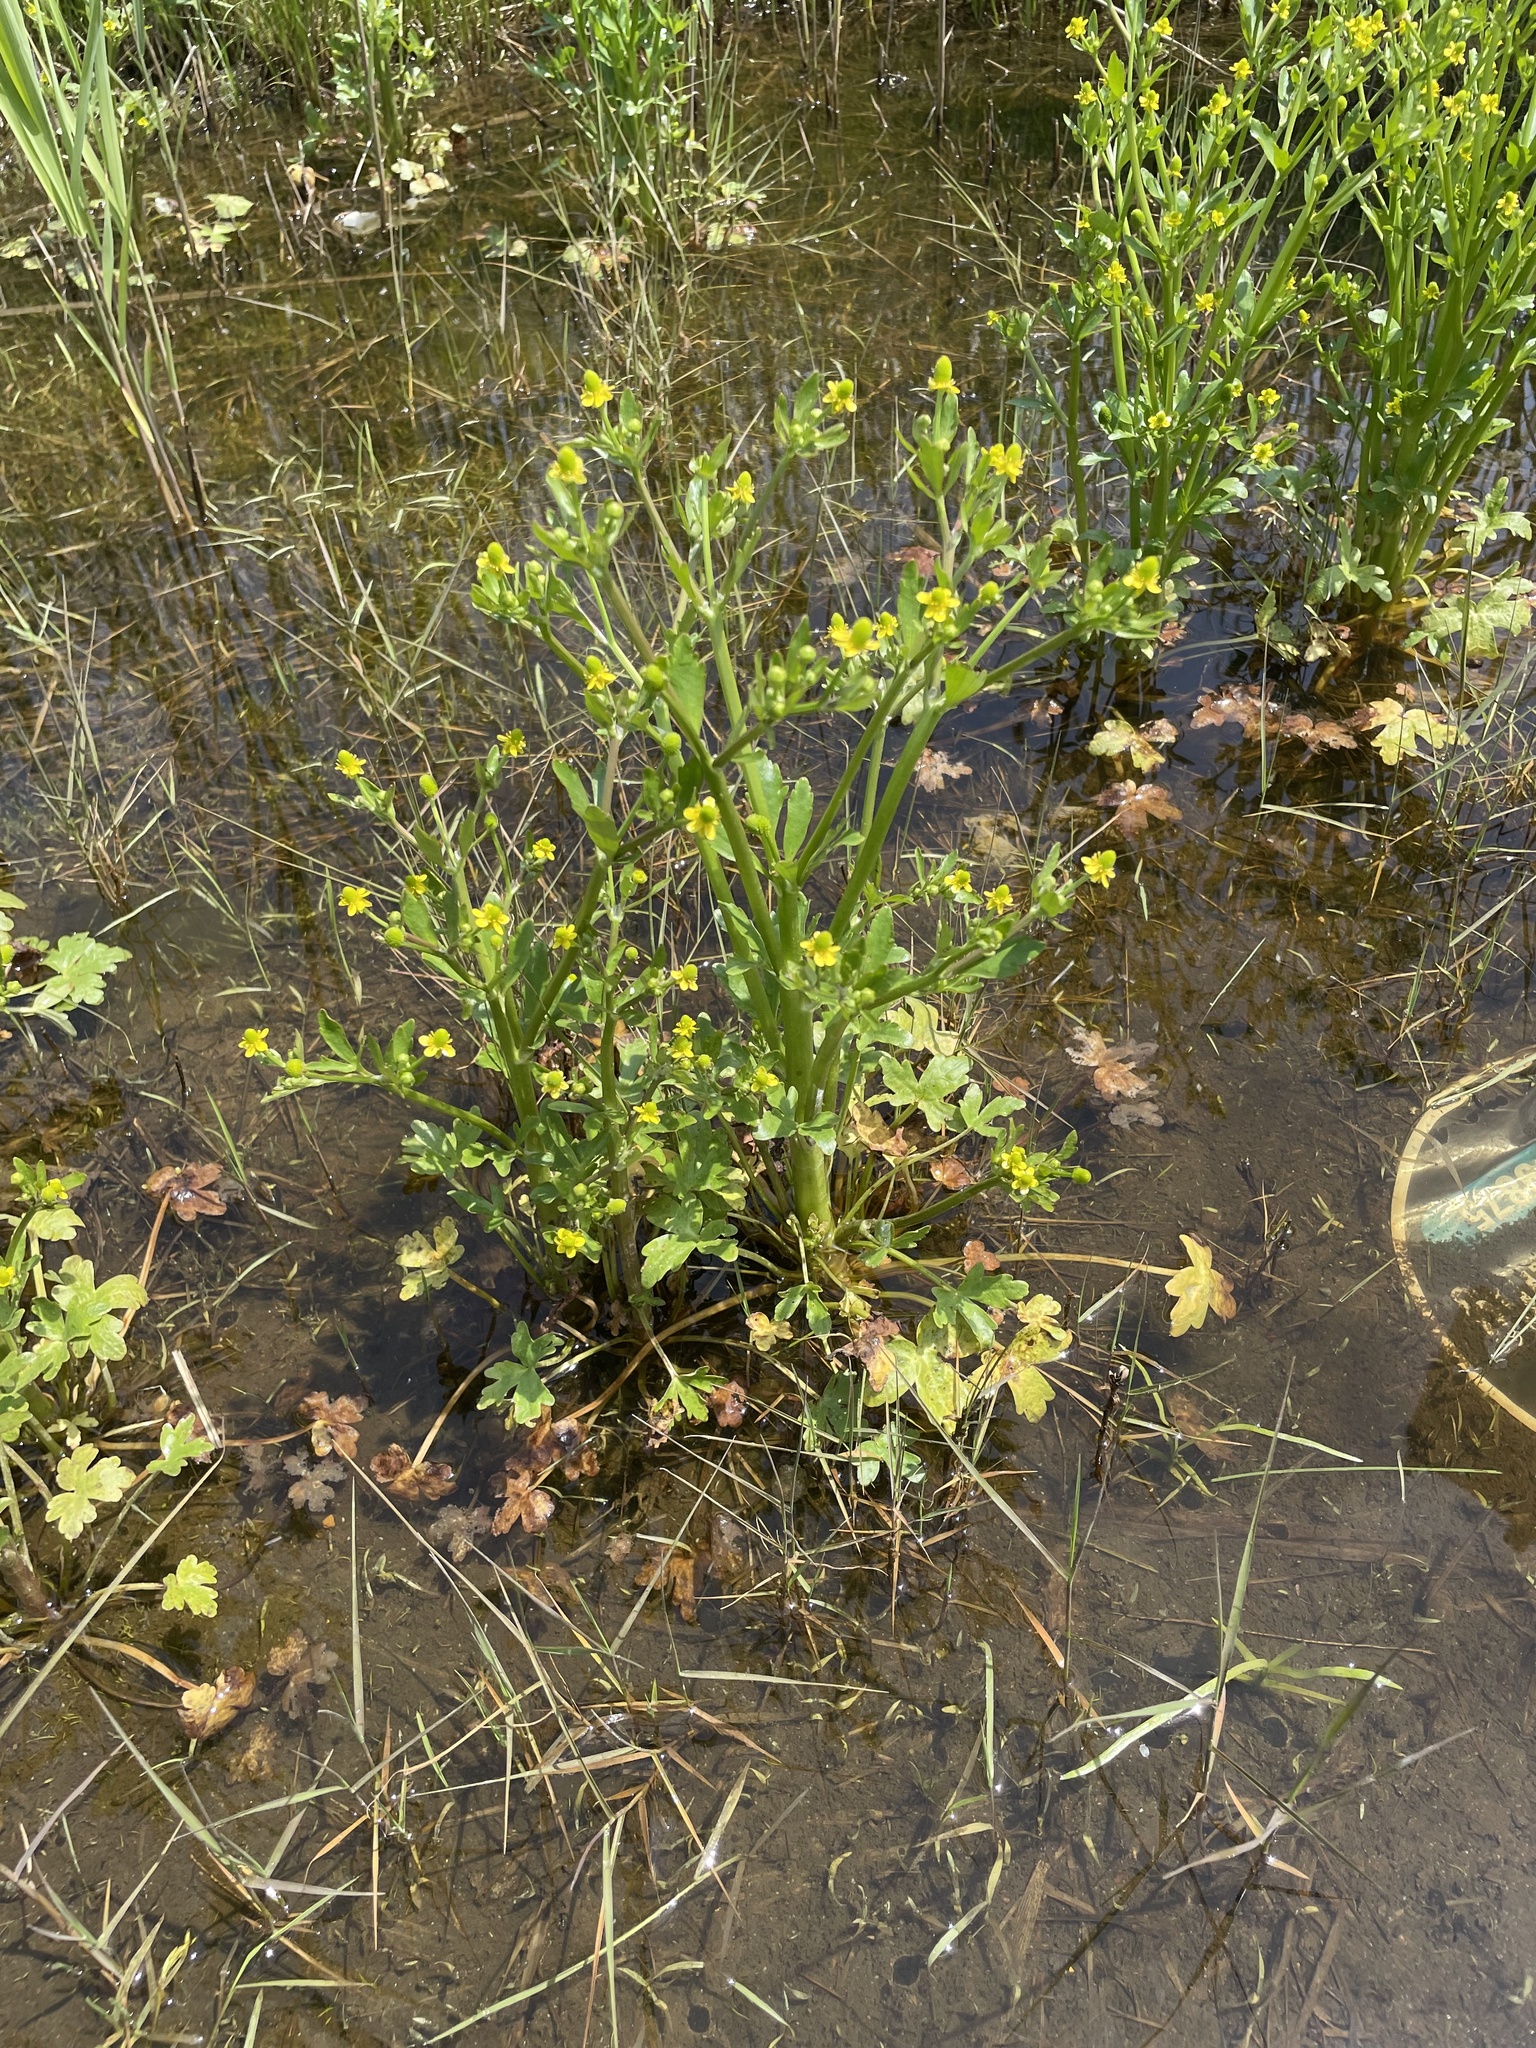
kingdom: Plantae
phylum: Tracheophyta
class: Magnoliopsida
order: Ranunculales
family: Ranunculaceae
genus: Ranunculus
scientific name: Ranunculus sceleratus
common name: Celery-leaved buttercup
